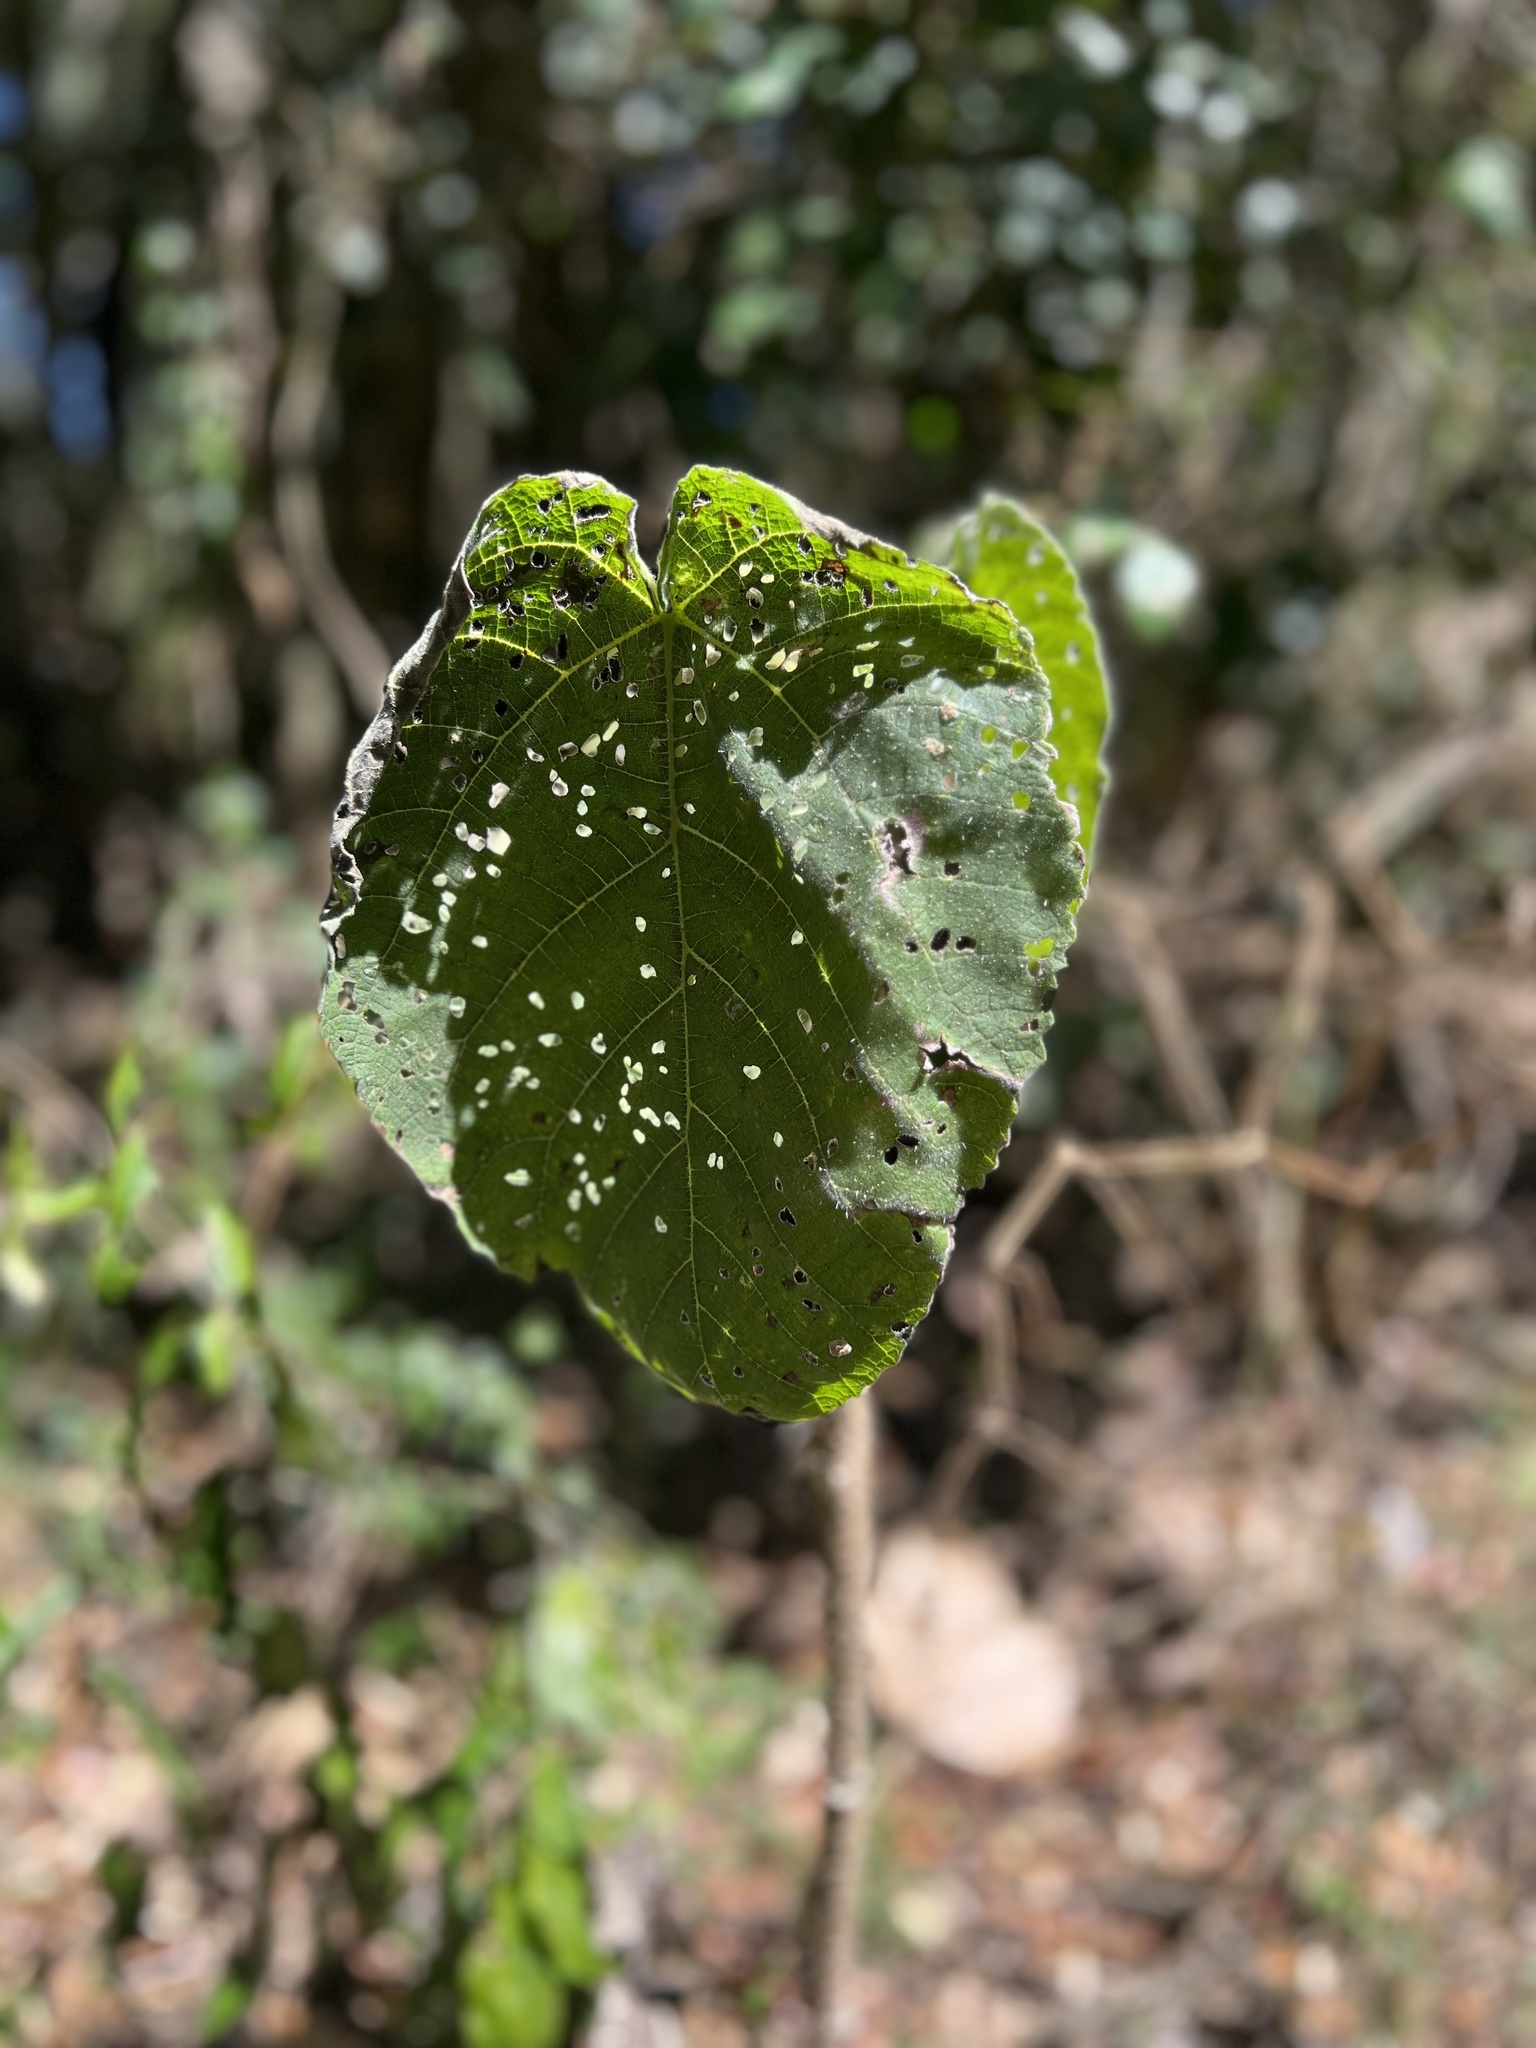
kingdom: Plantae
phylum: Tracheophyta
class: Magnoliopsida
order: Rosales
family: Urticaceae
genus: Dendrocnide
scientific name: Dendrocnide excelsa
